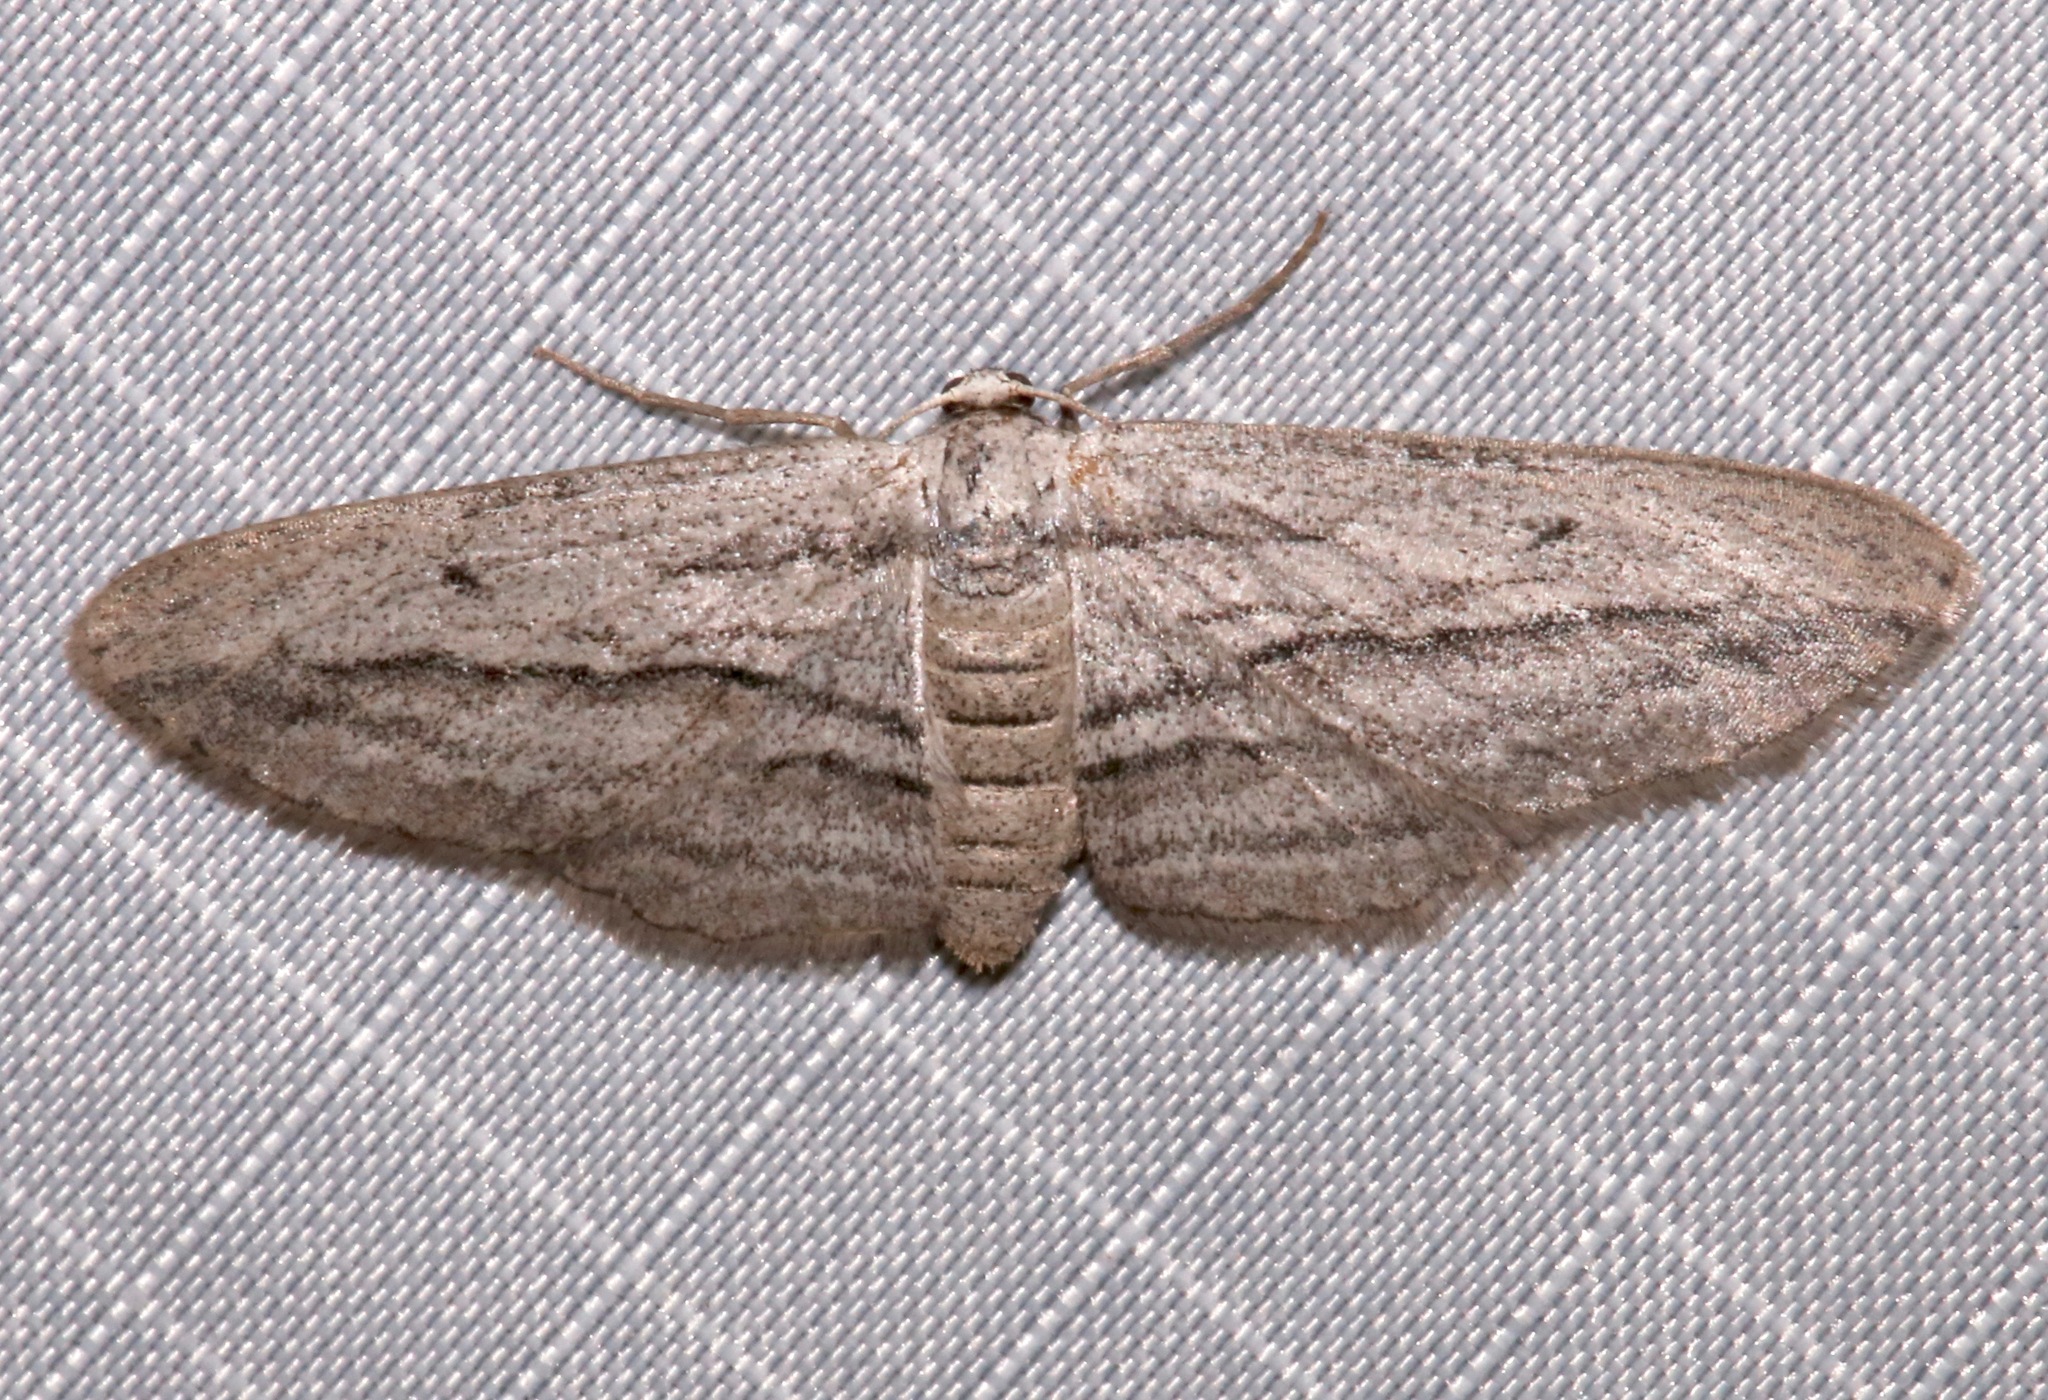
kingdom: Animalia
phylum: Arthropoda
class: Insecta
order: Lepidoptera
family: Geometridae
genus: Glena
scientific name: Glena quinquelinearia
